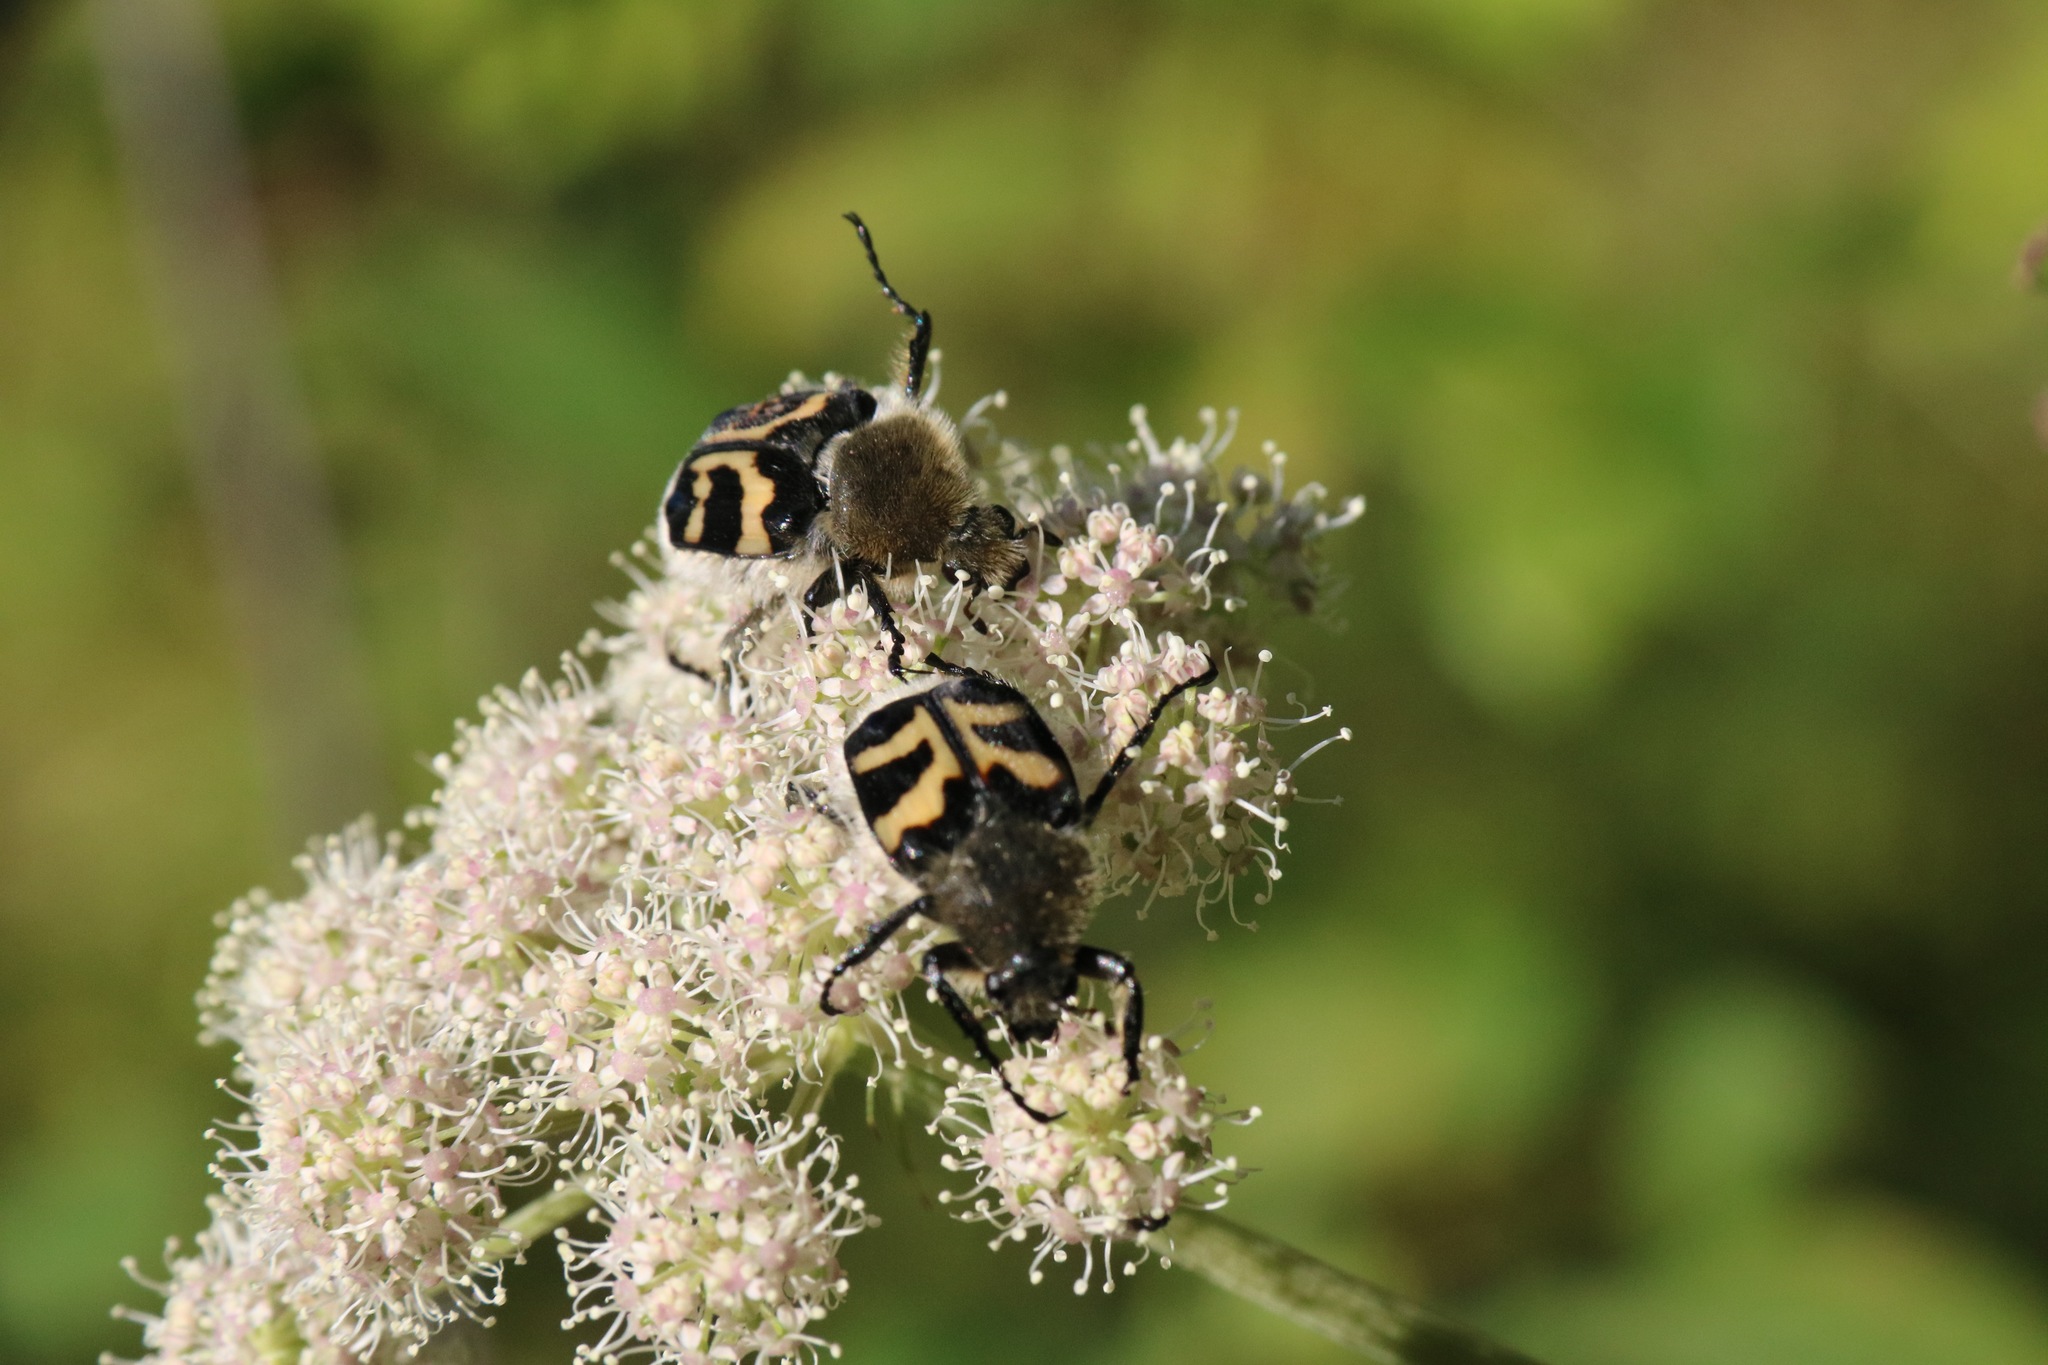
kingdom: Animalia
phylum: Arthropoda
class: Insecta
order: Coleoptera
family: Scarabaeidae
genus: Trichius
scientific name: Trichius fasciatus
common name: Bee beetle
